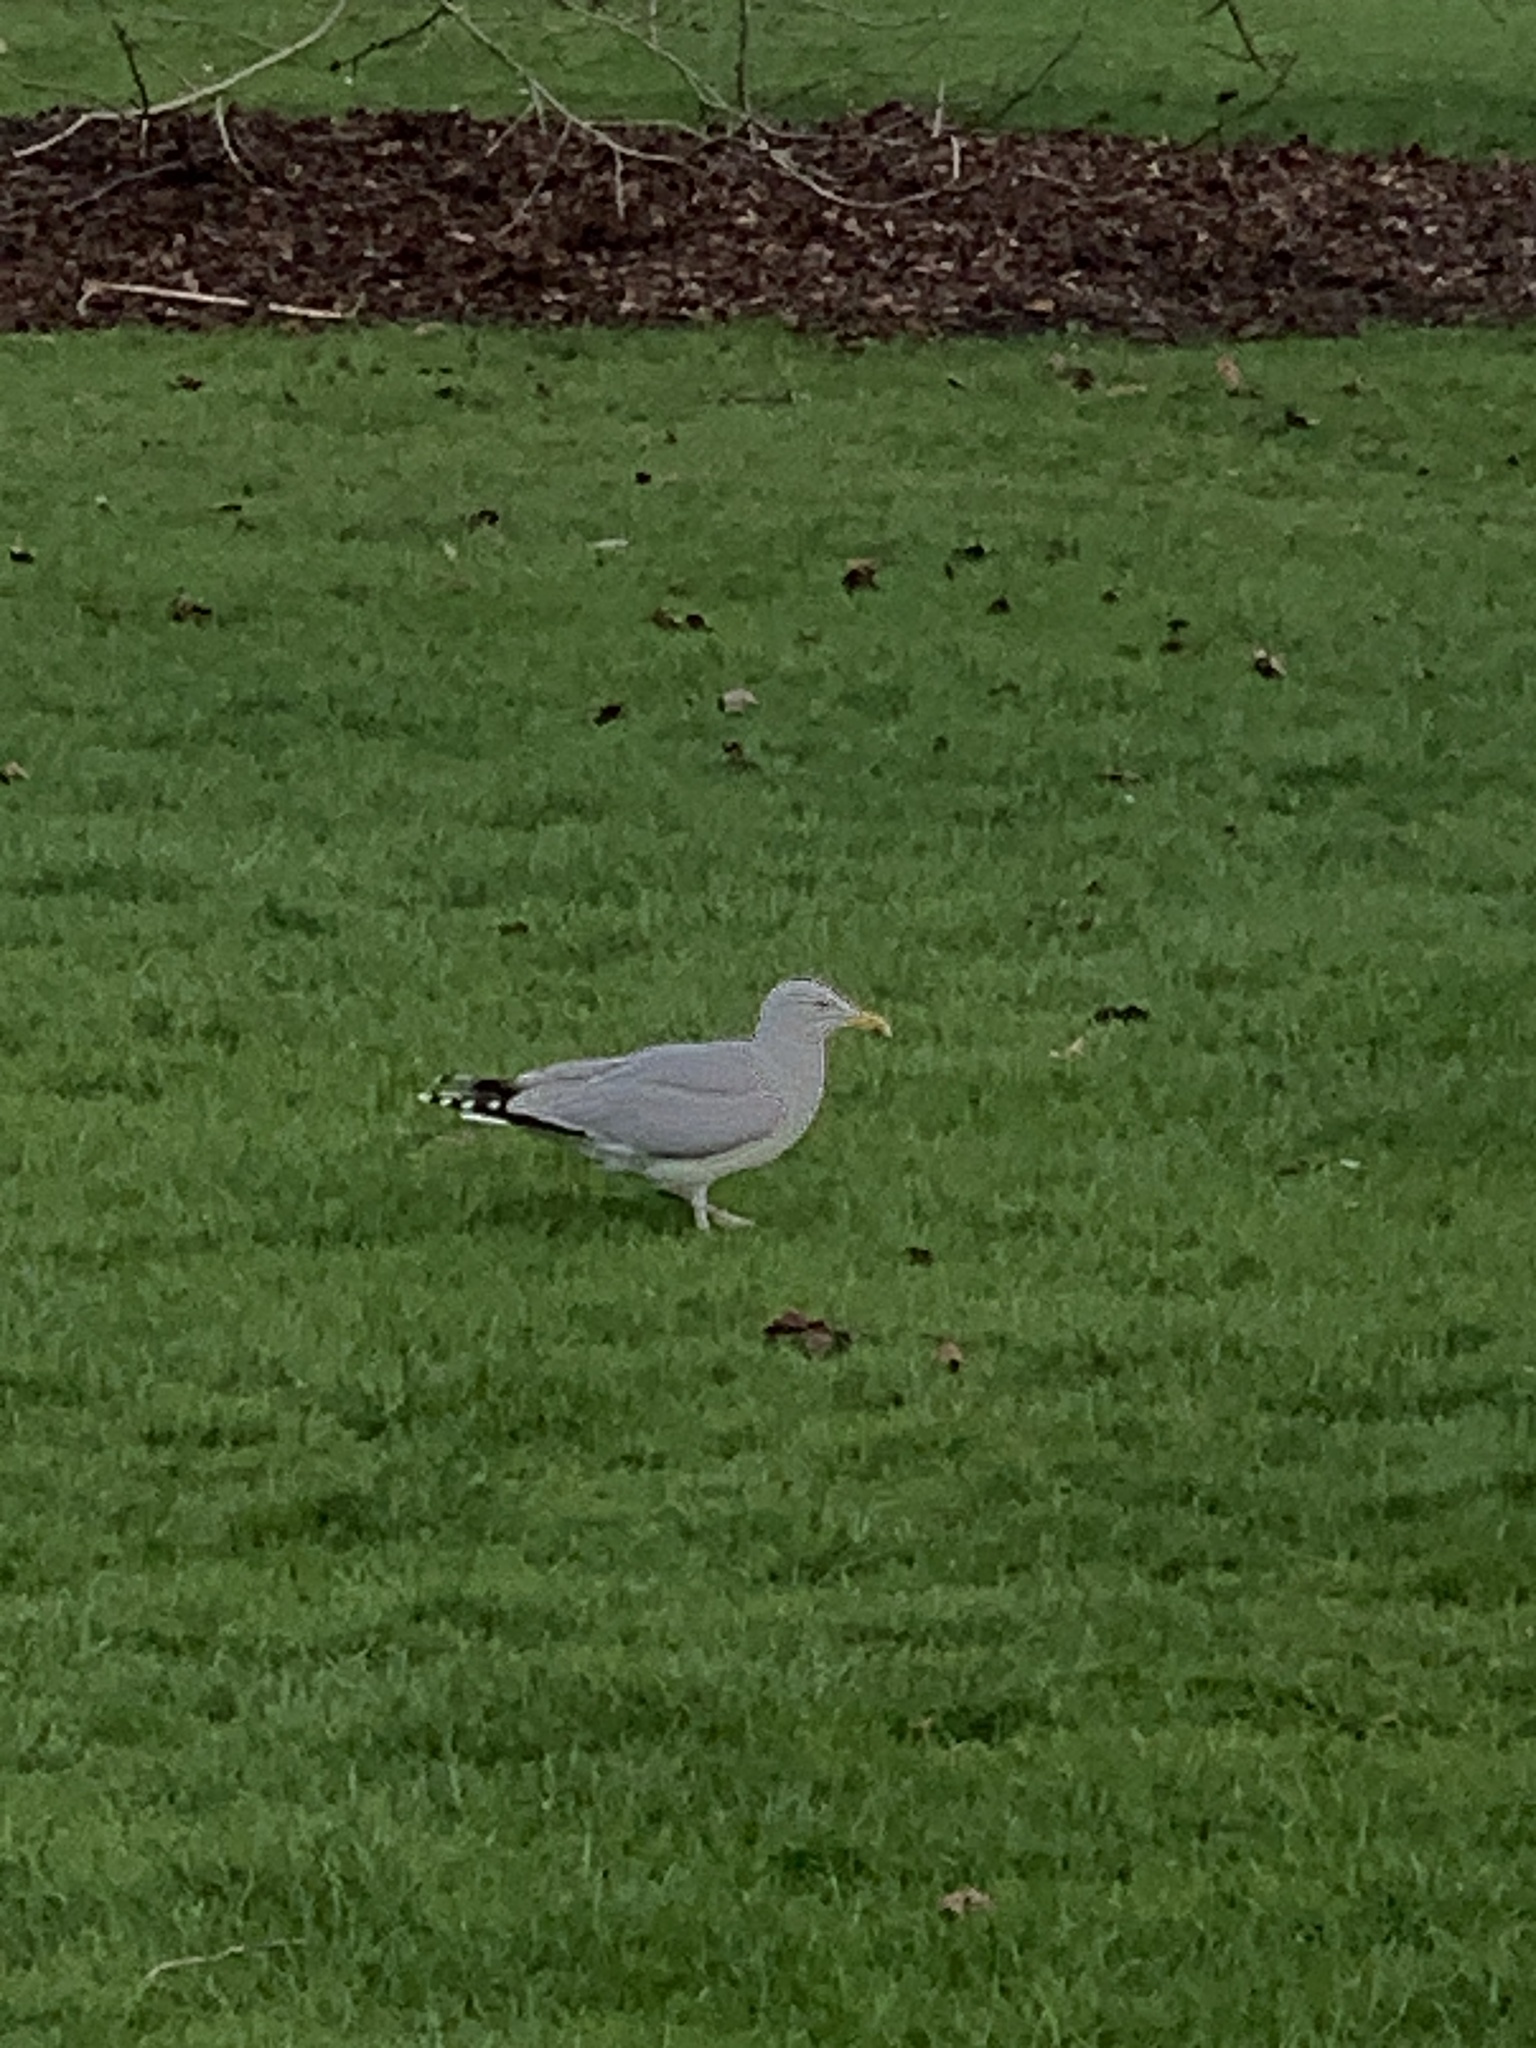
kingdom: Animalia
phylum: Chordata
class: Aves
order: Charadriiformes
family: Laridae
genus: Larus
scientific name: Larus argentatus
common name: Herring gull
